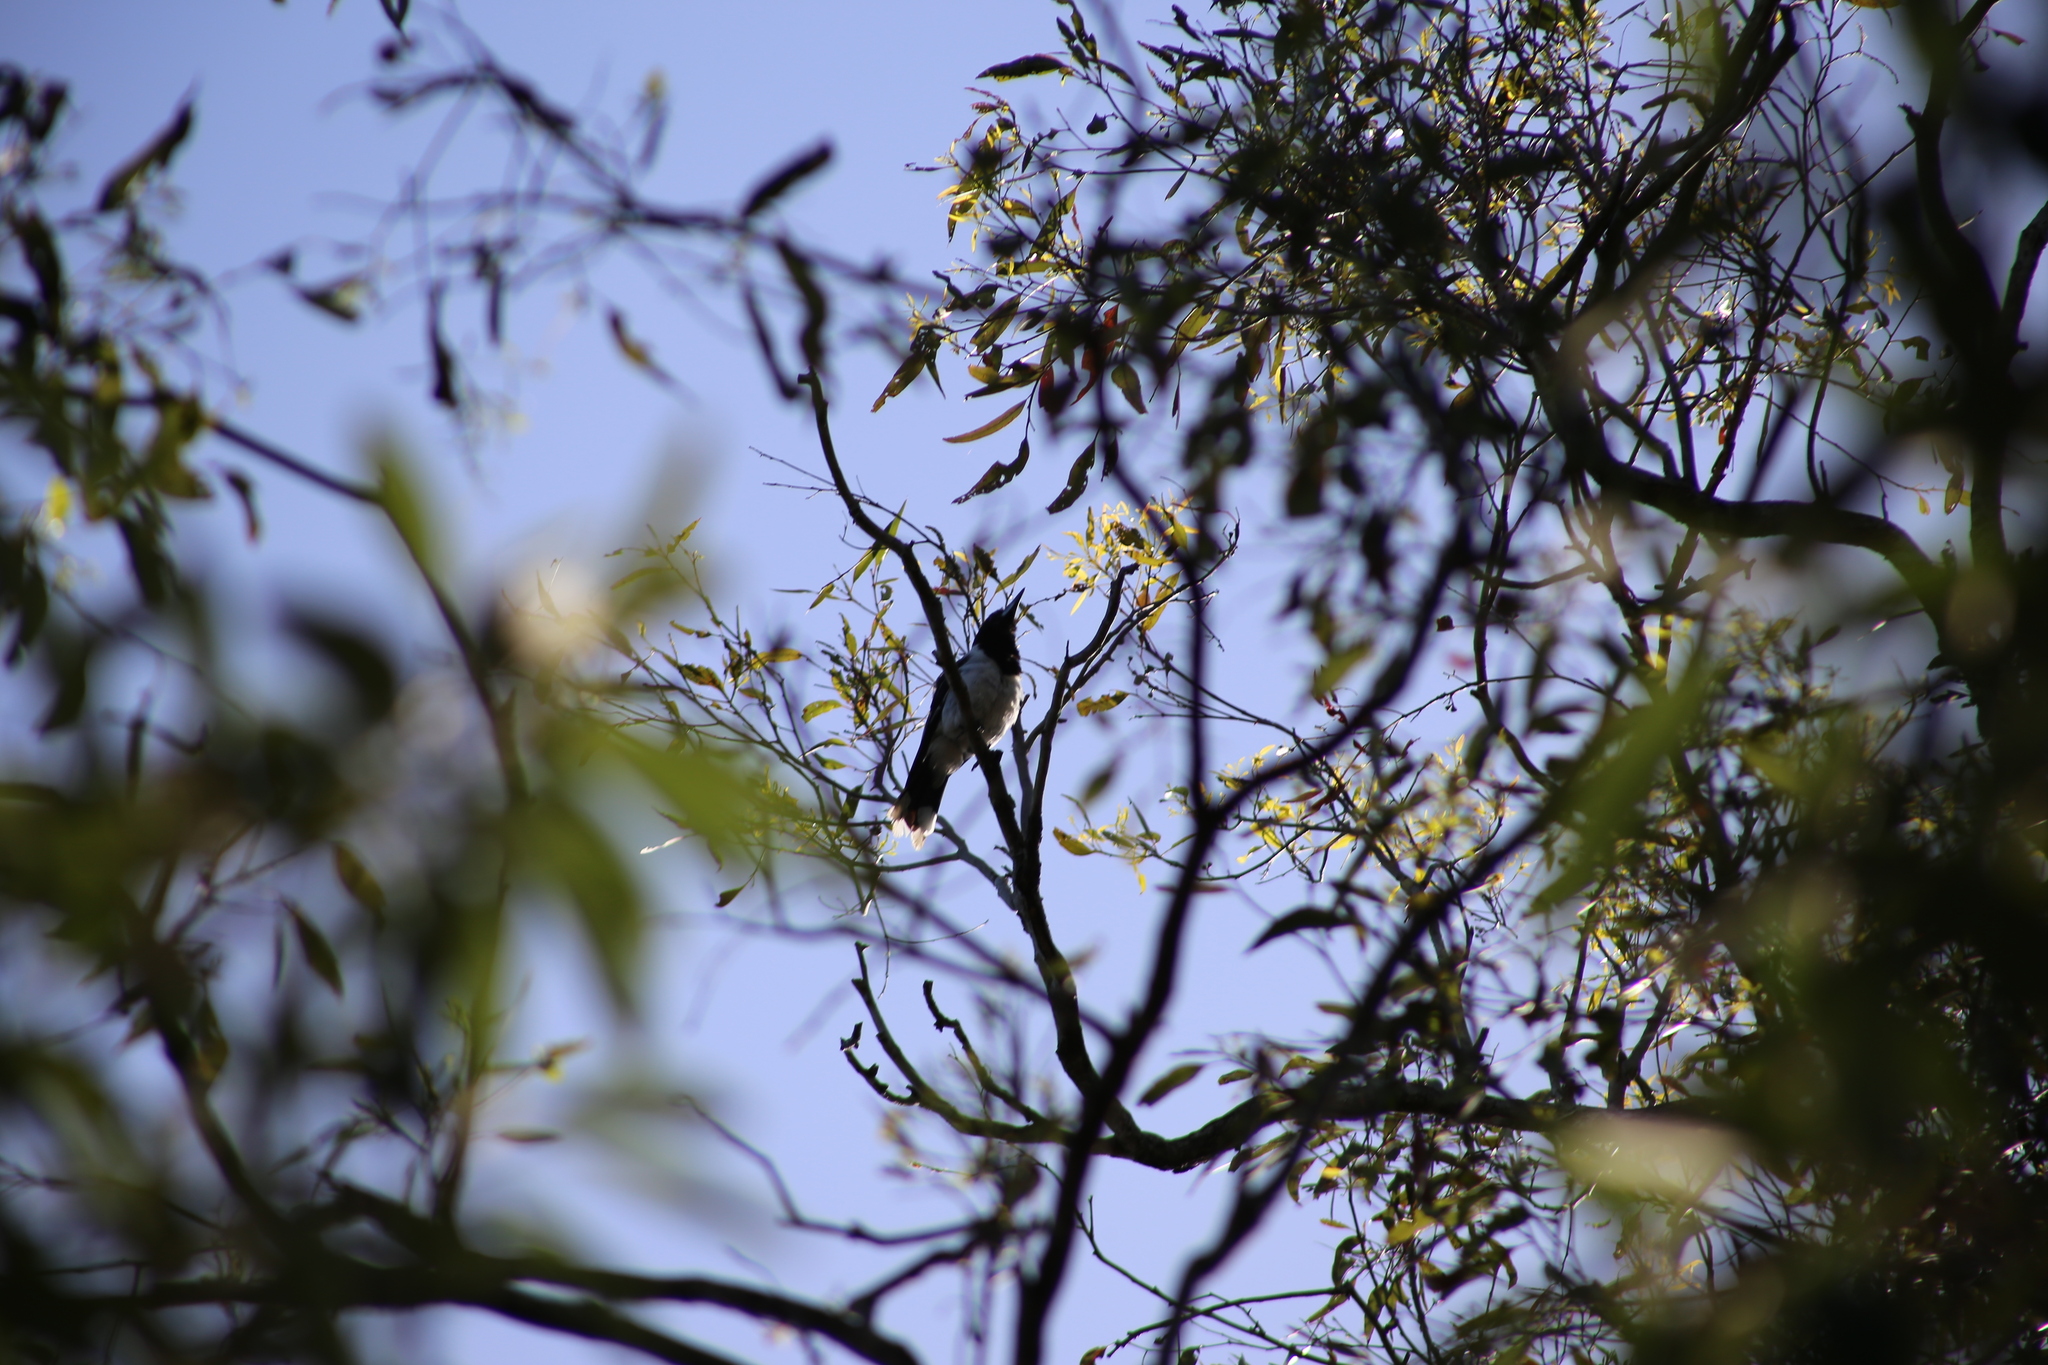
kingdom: Animalia
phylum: Chordata
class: Aves
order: Passeriformes
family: Cracticidae
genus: Cracticus
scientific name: Cracticus nigrogularis
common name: Pied butcherbird
